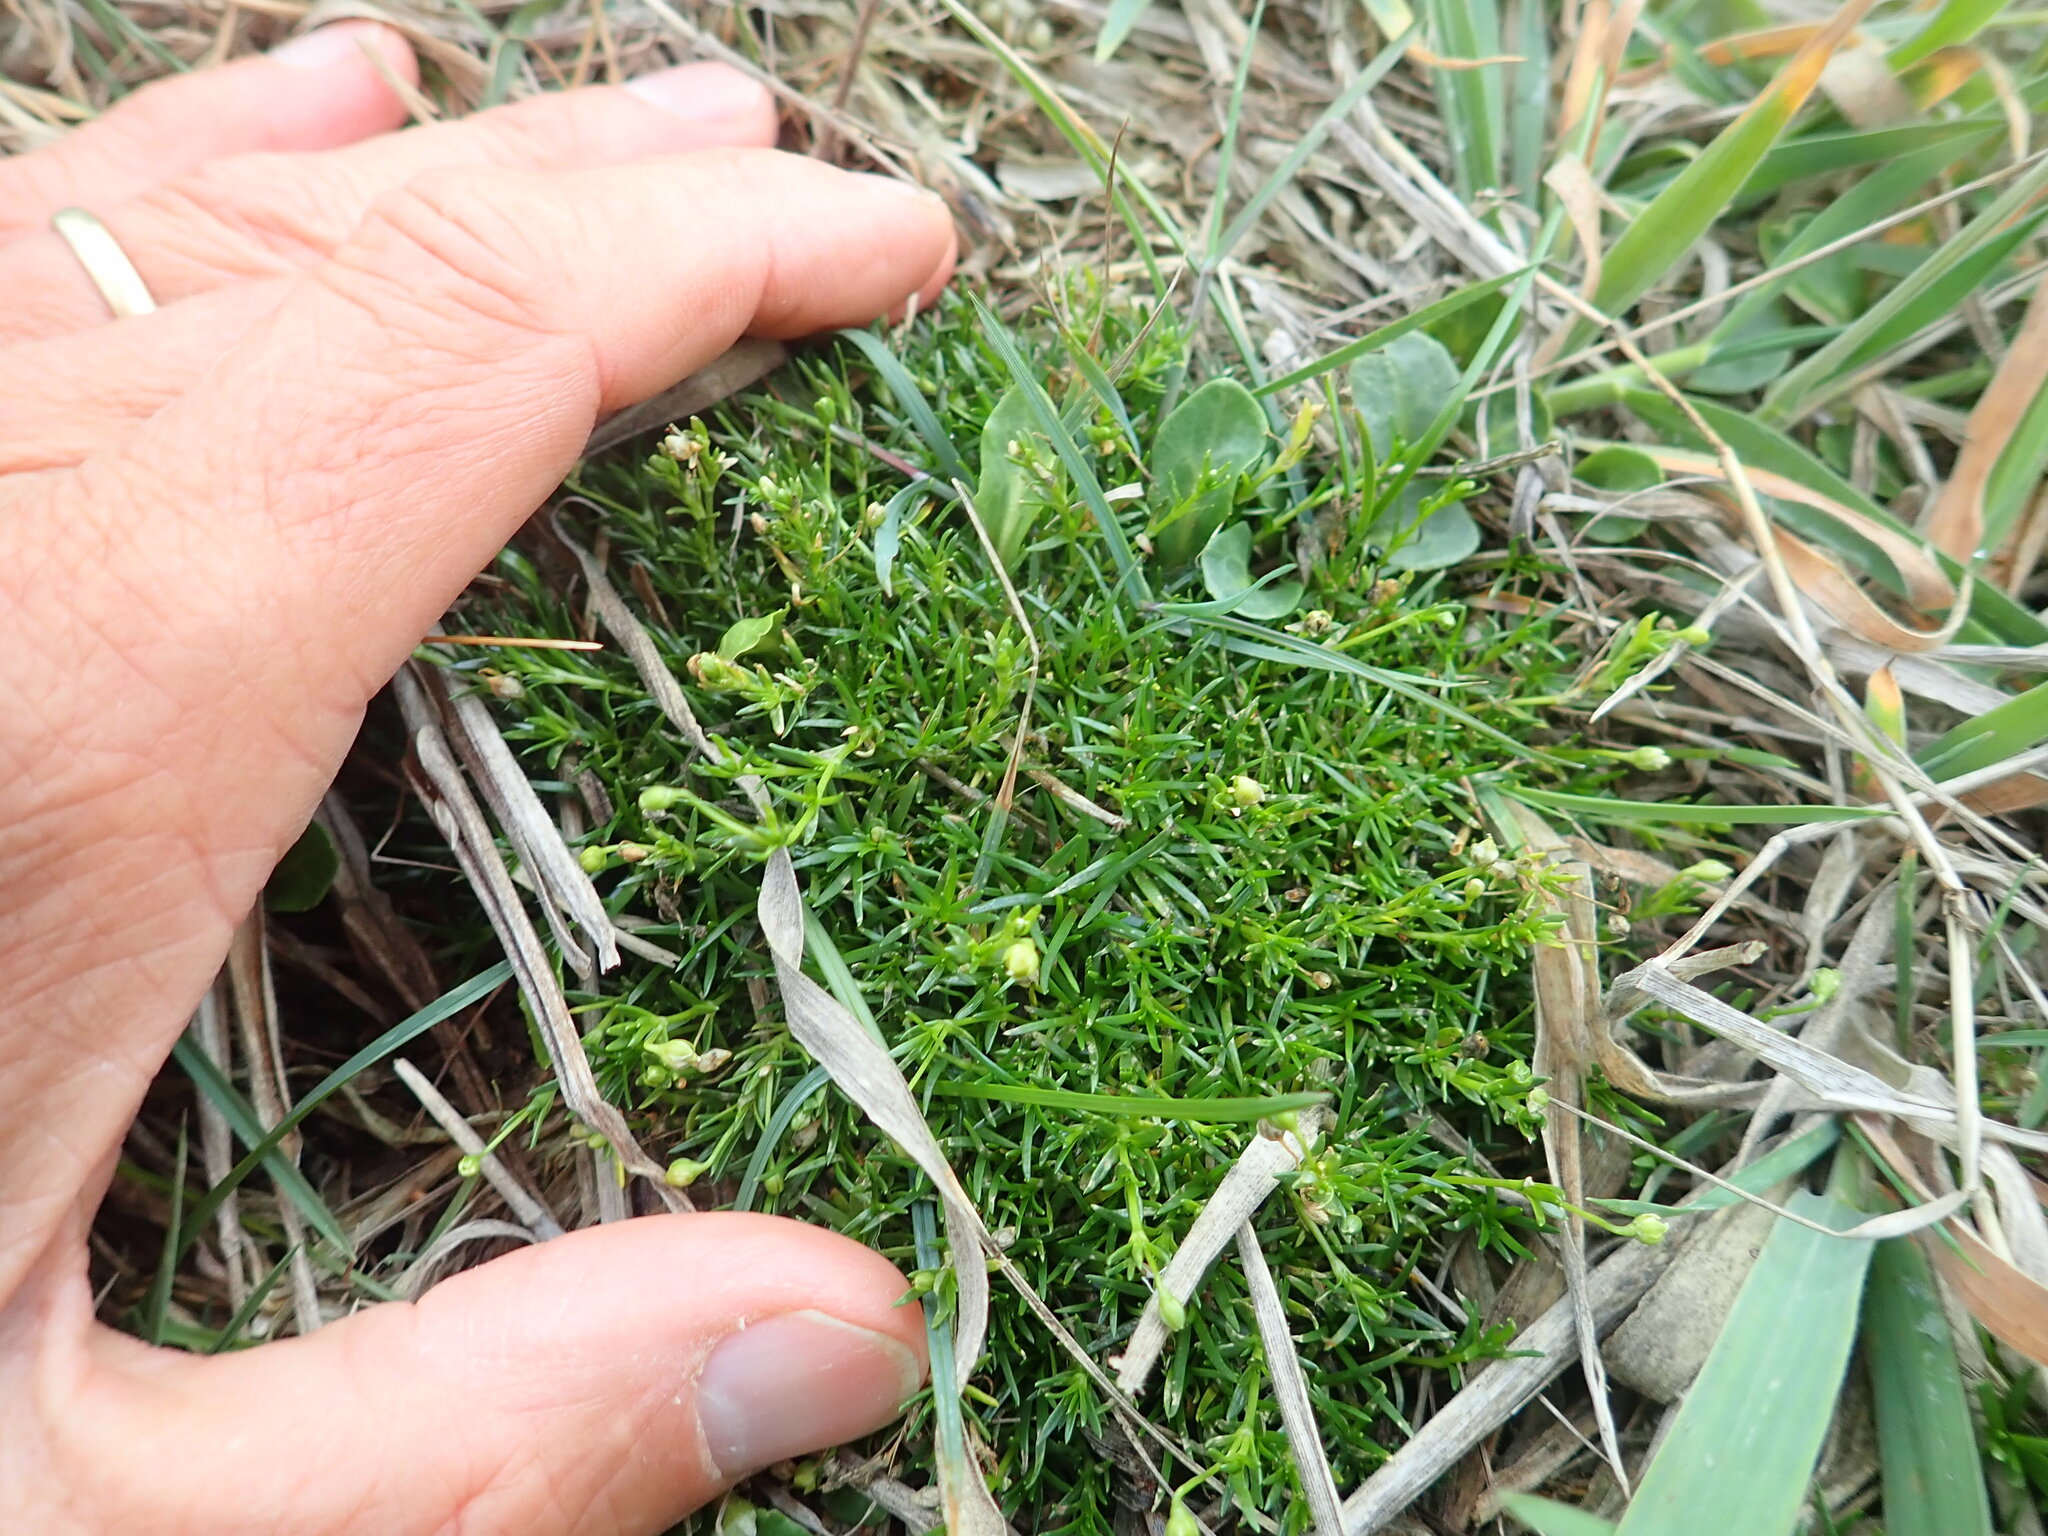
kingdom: Plantae
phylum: Tracheophyta
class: Magnoliopsida
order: Caryophyllales
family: Caryophyllaceae
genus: Sagina
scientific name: Sagina procumbens
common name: Procumbent pearlwort
